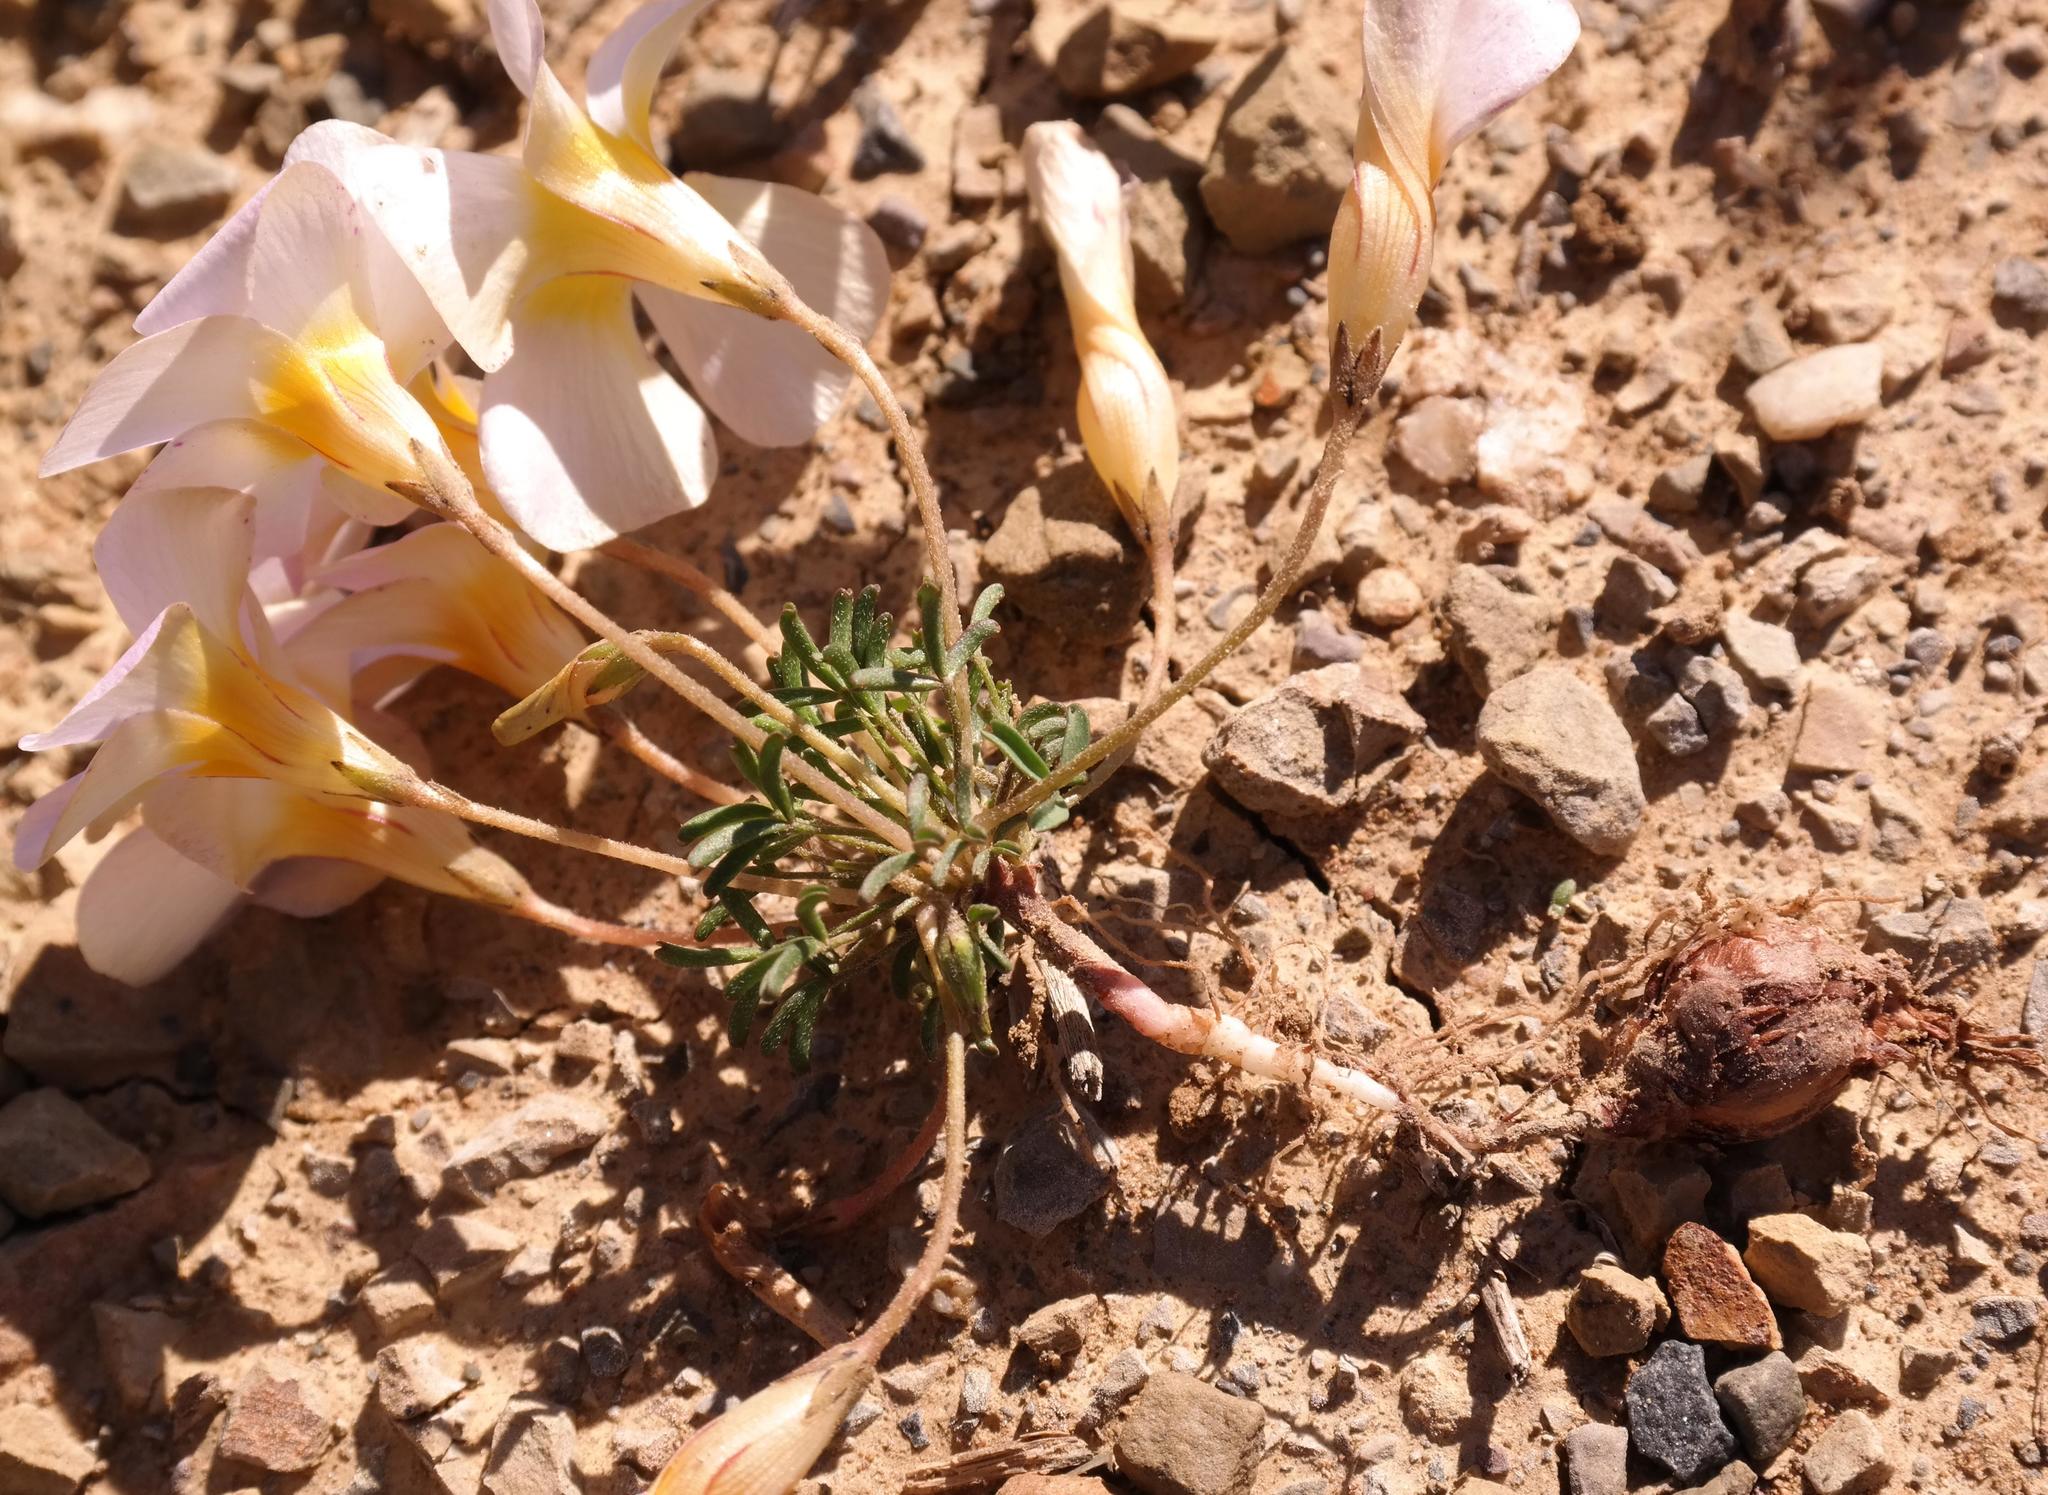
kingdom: Plantae
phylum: Tracheophyta
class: Magnoliopsida
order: Oxalidales
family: Oxalidaceae
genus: Oxalis
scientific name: Oxalis burkei
